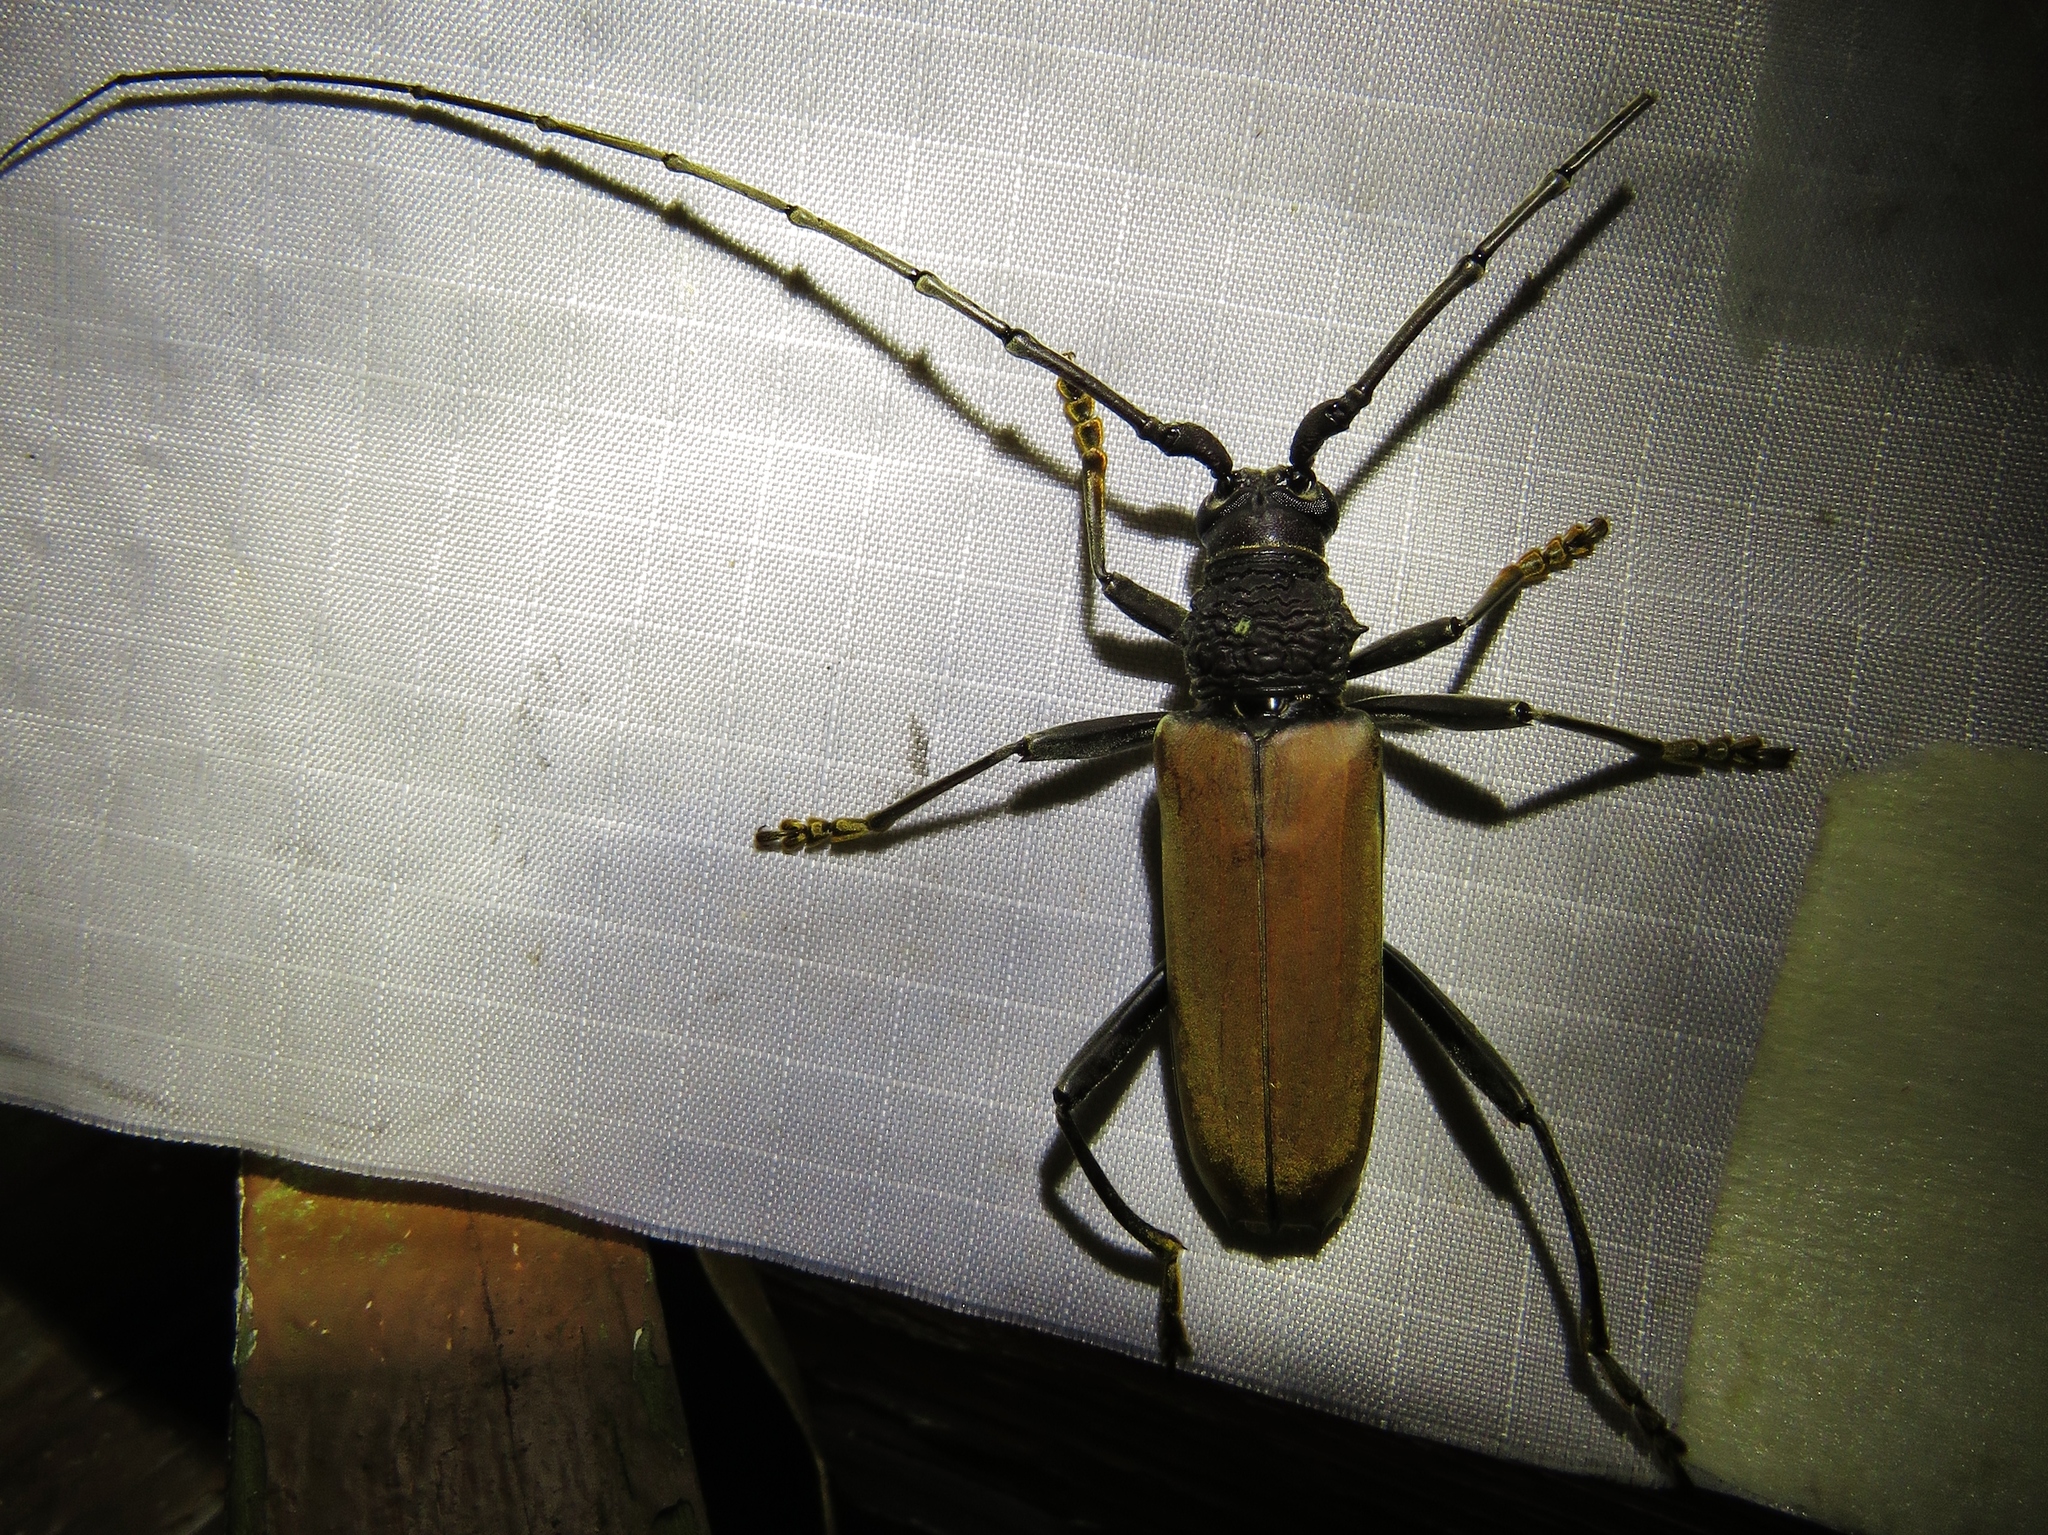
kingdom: Animalia
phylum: Arthropoda
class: Insecta
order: Coleoptera
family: Cerambycidae
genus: Juiaparus
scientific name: Juiaparus mexicanus
